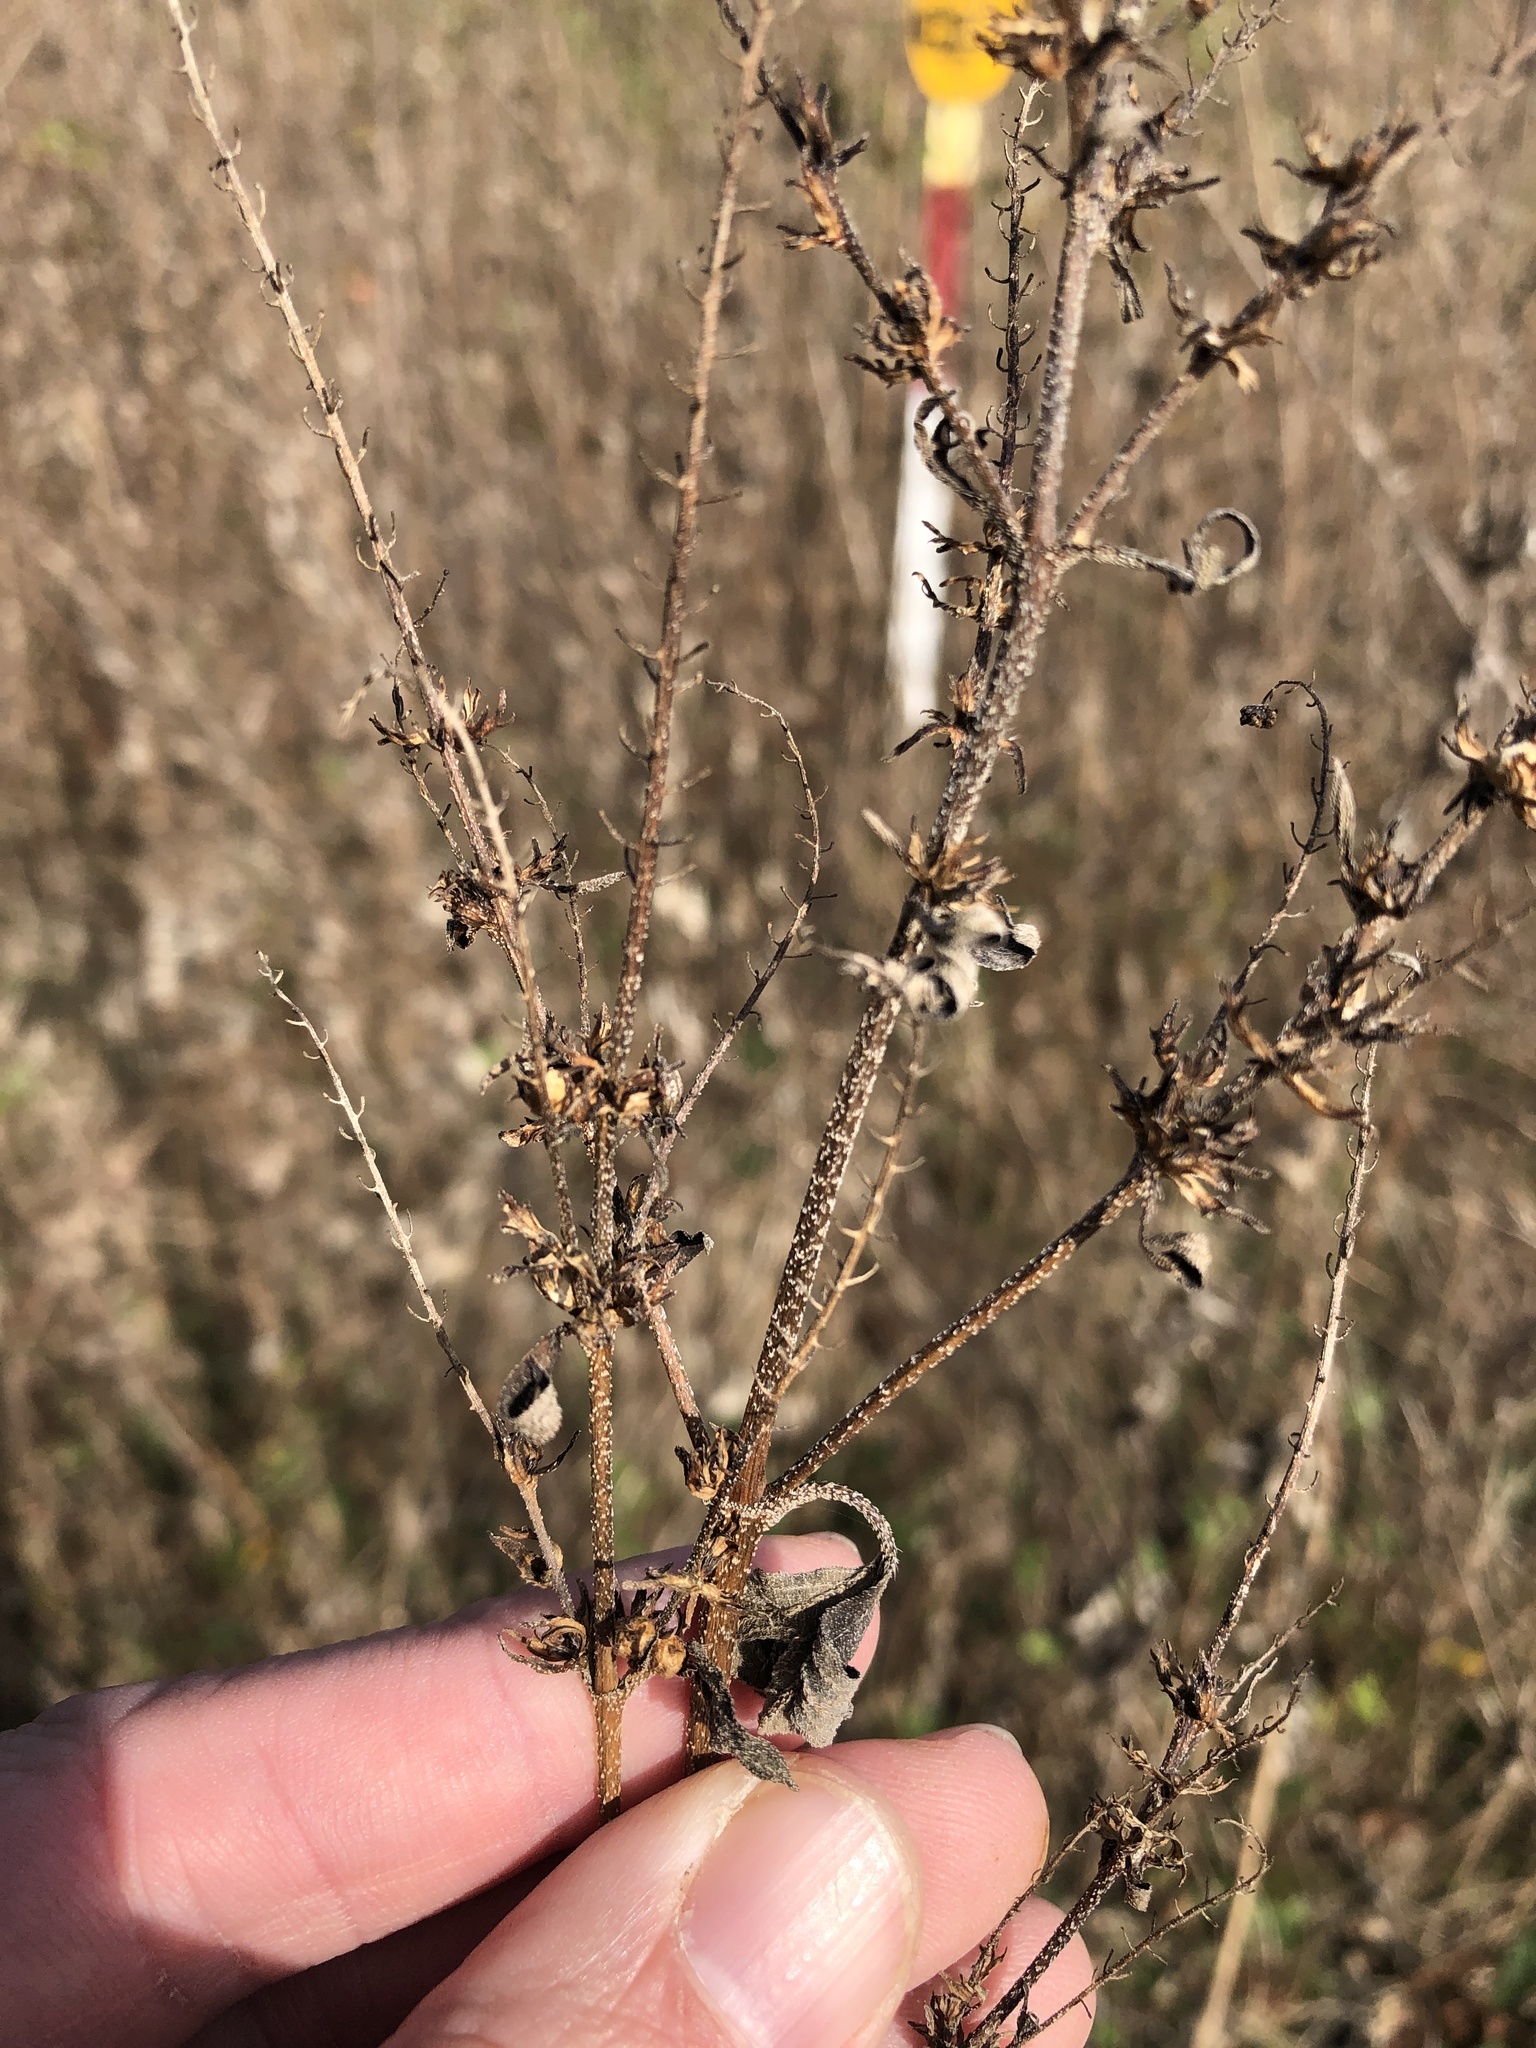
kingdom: Plantae
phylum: Tracheophyta
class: Magnoliopsida
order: Asterales
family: Asteraceae
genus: Ambrosia
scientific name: Ambrosia trifida
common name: Giant ragweed
